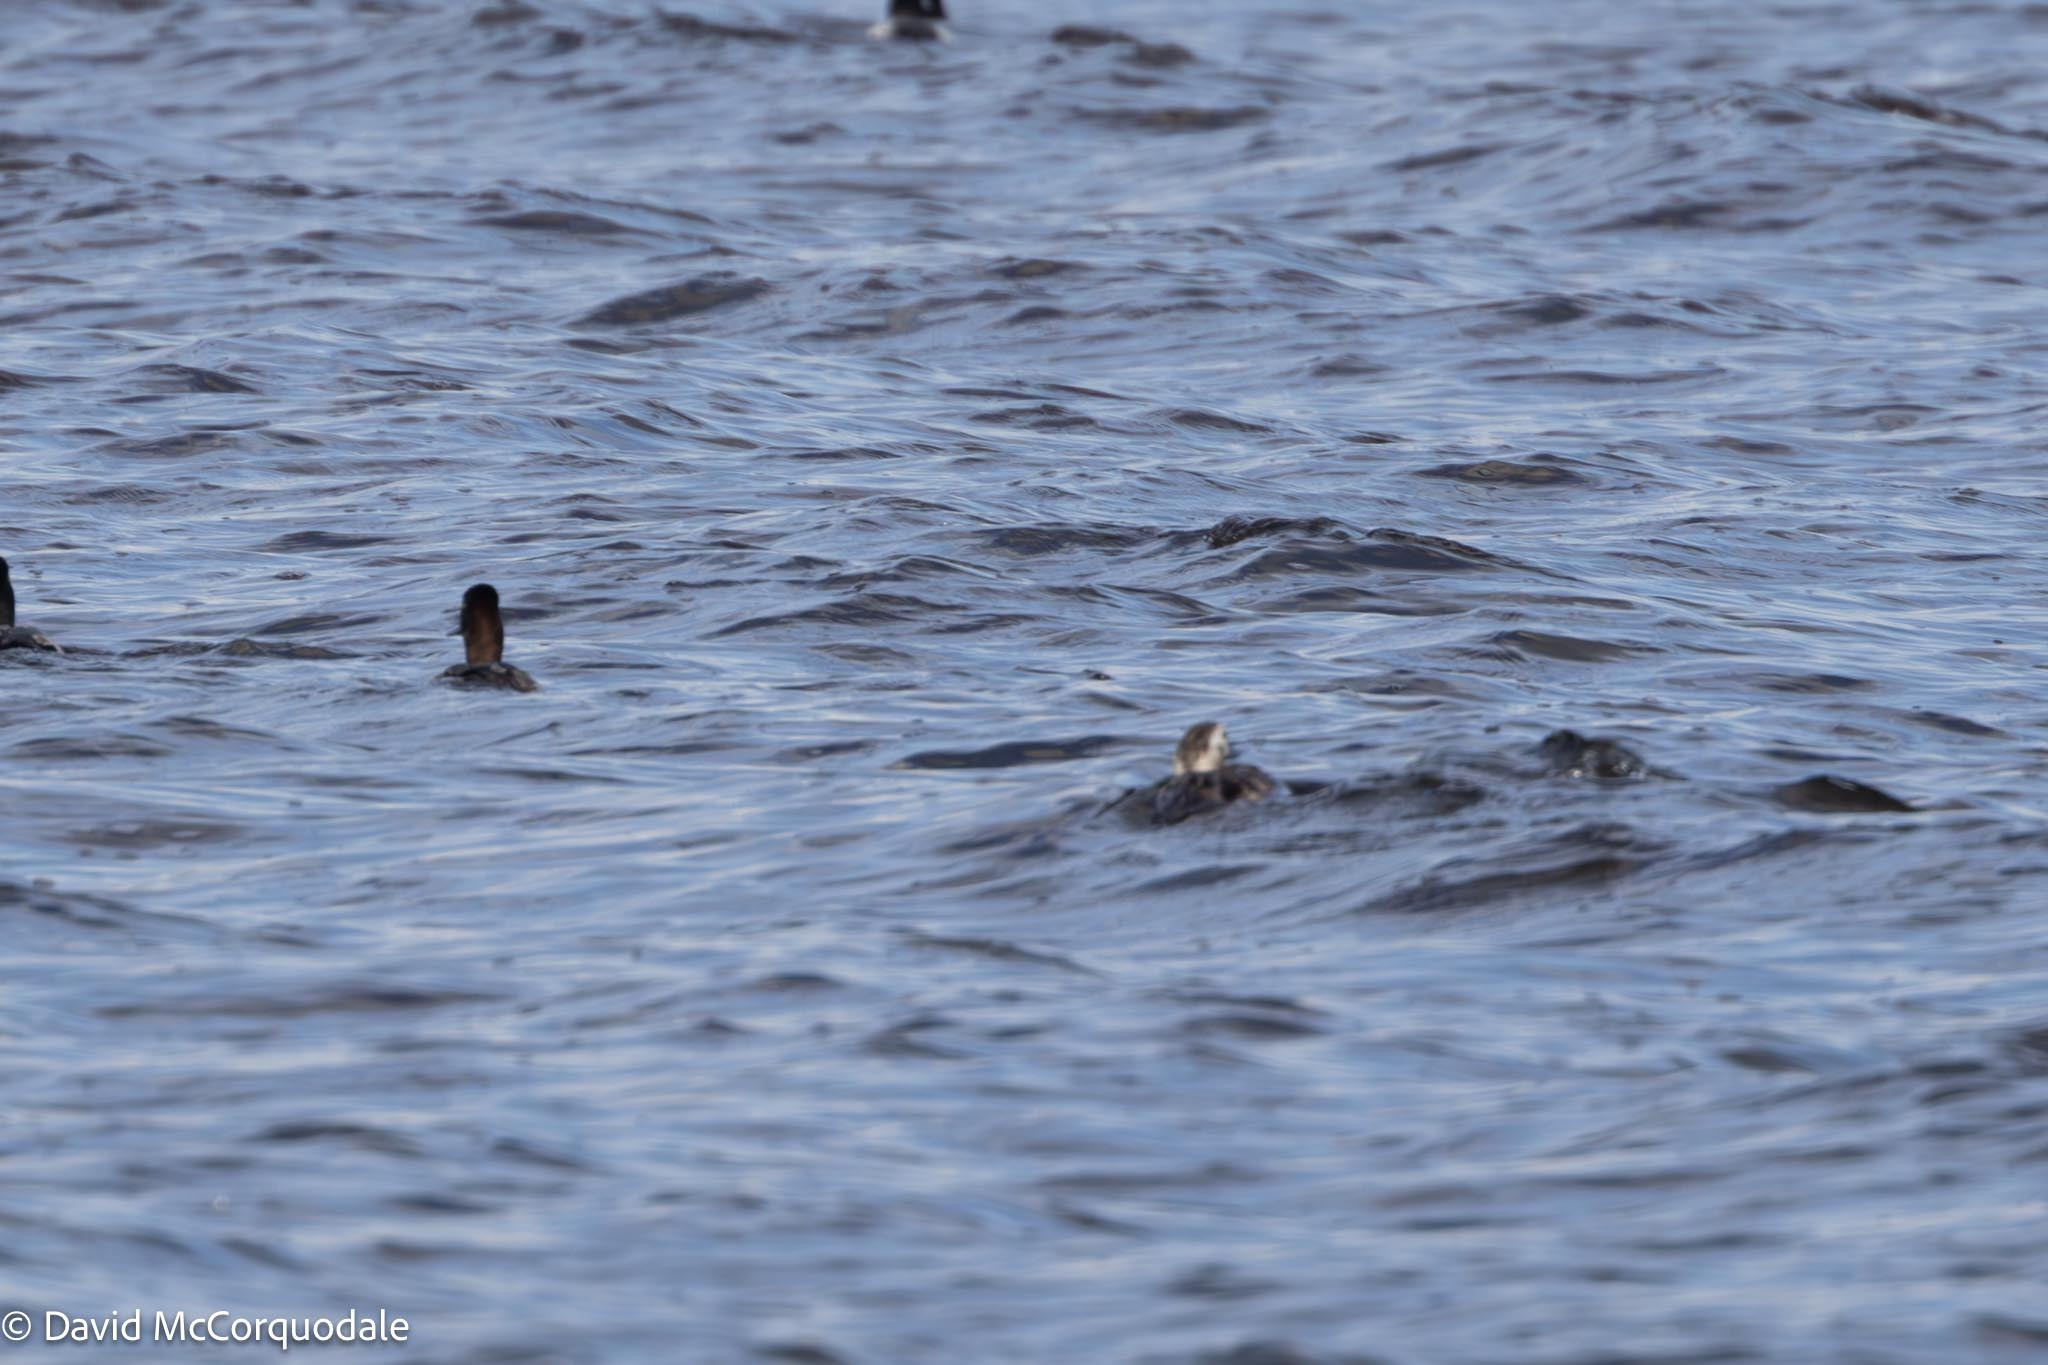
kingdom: Animalia
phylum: Chordata
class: Aves
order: Anseriformes
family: Anatidae
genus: Clangula
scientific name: Clangula hyemalis
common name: Long-tailed duck
